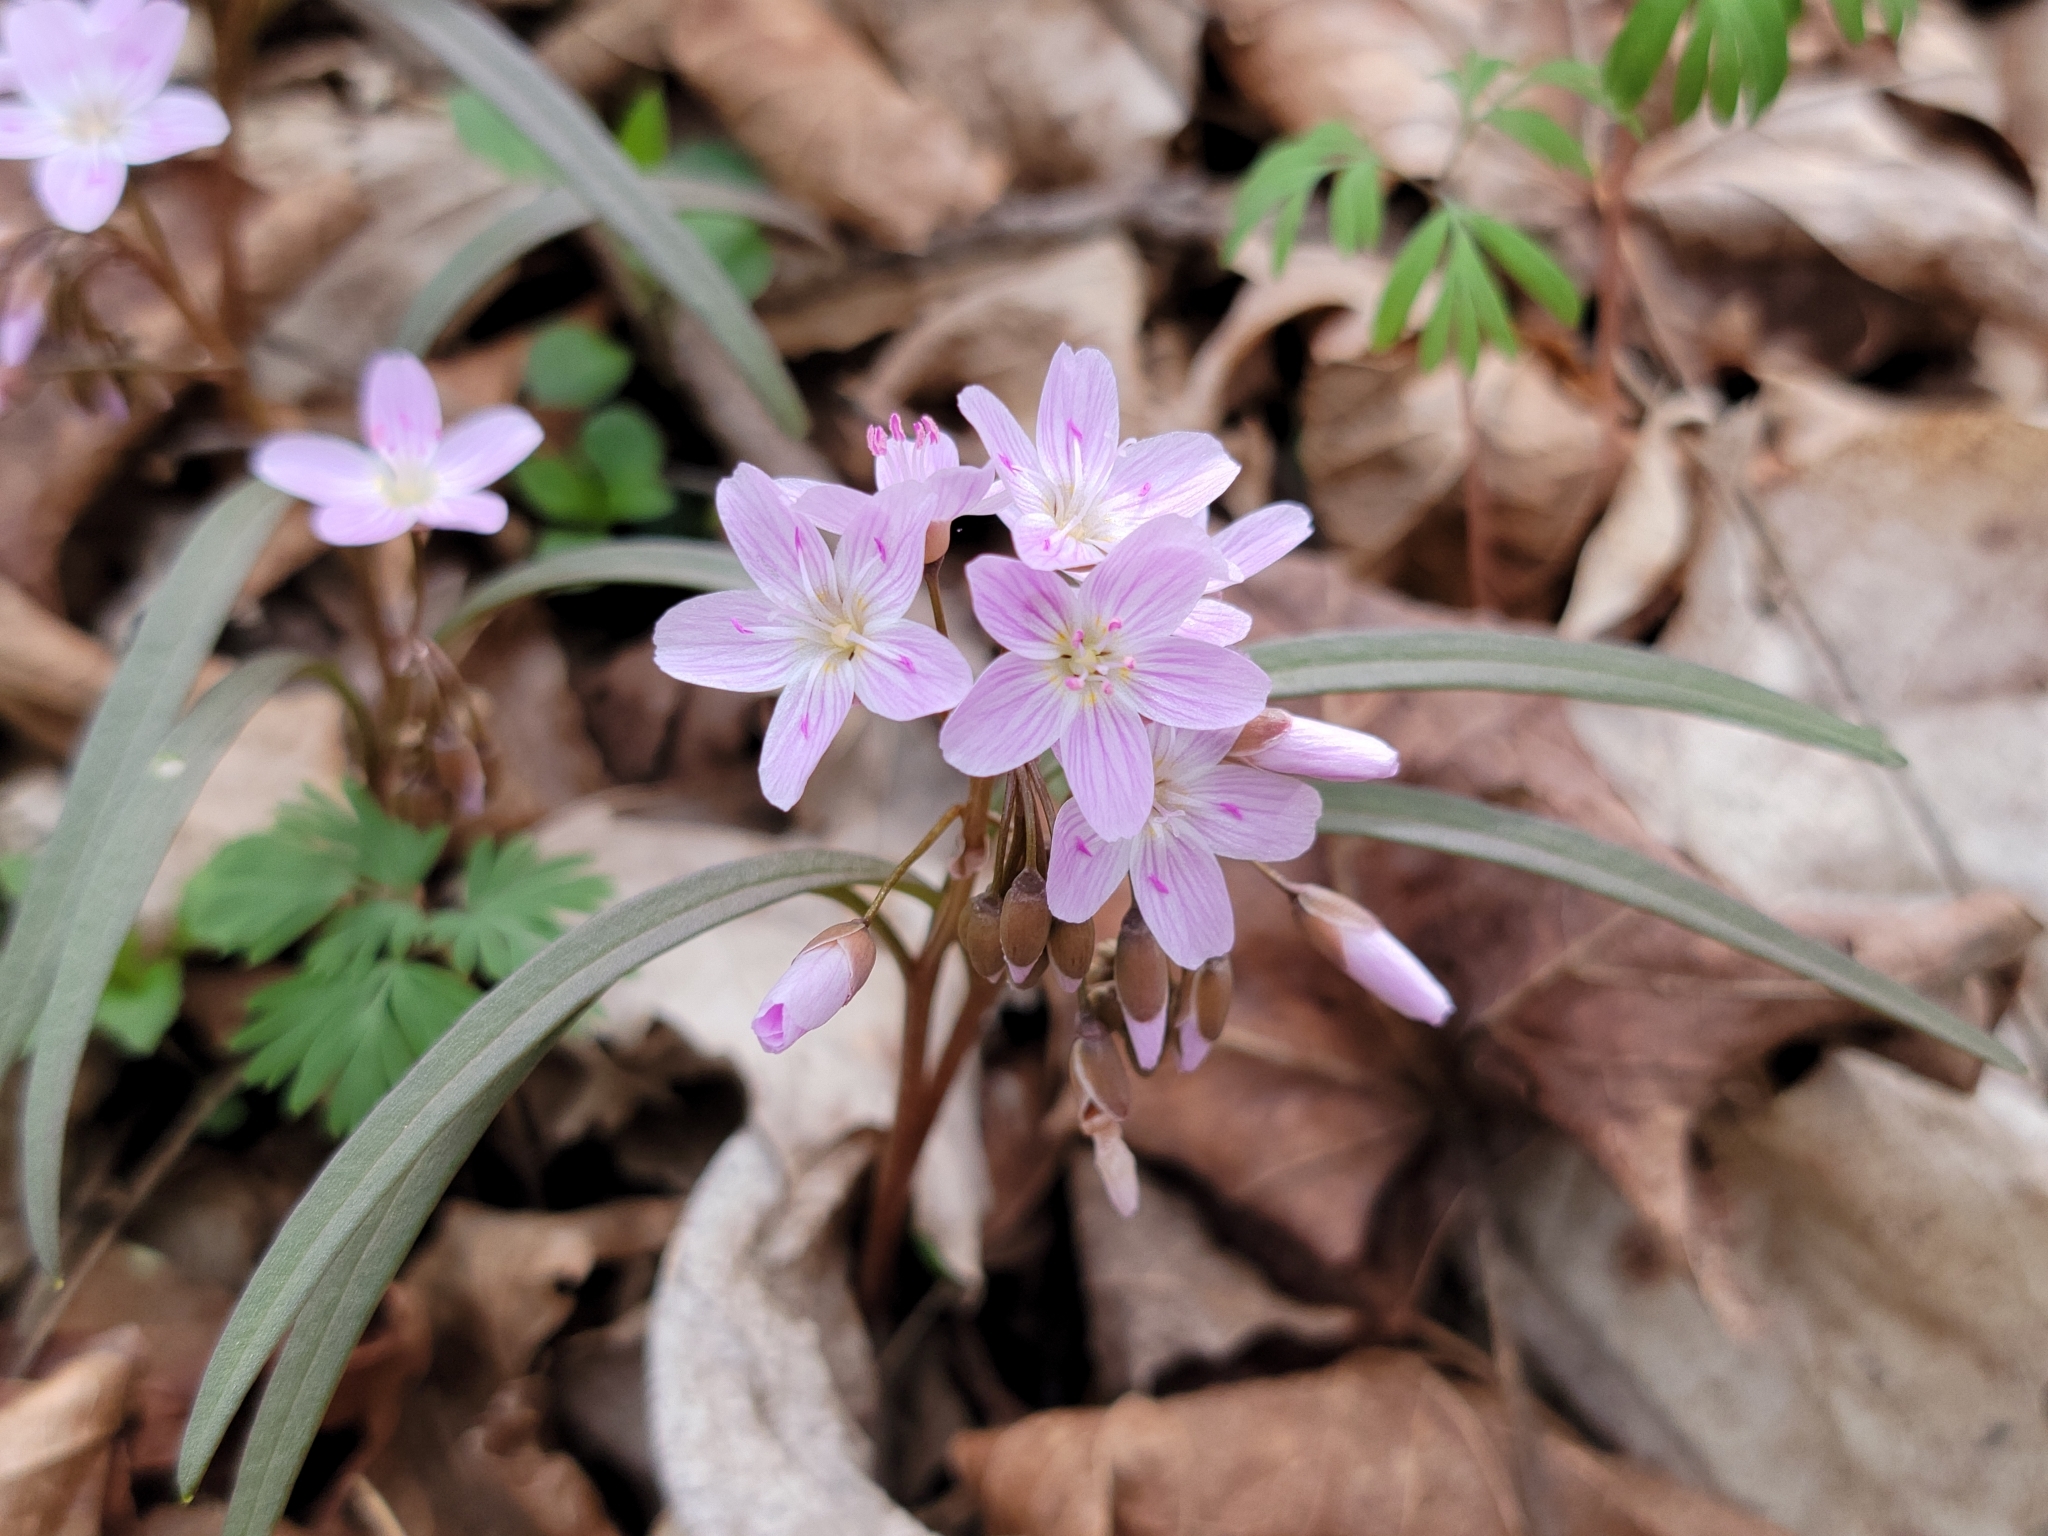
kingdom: Plantae
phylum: Tracheophyta
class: Magnoliopsida
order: Caryophyllales
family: Montiaceae
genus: Claytonia
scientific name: Claytonia virginica
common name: Virginia springbeauty
